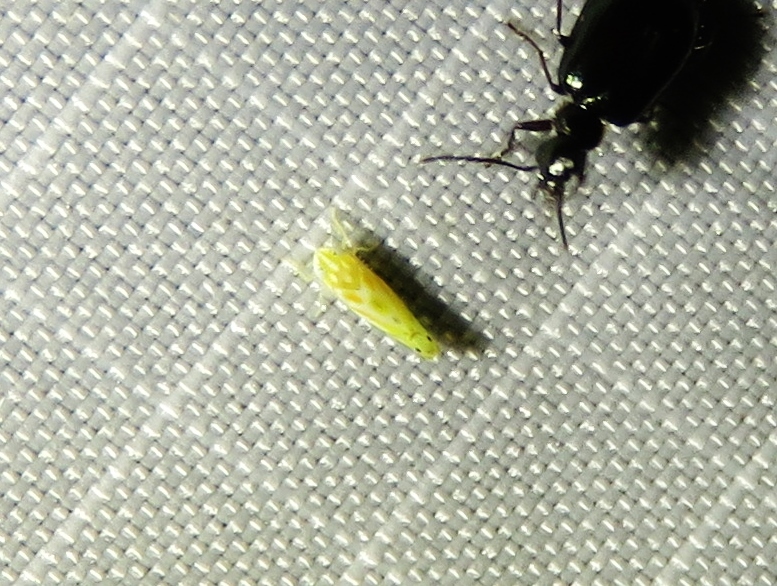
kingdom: Animalia
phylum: Arthropoda
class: Insecta
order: Hemiptera
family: Cicadellidae
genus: Alconeura
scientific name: Alconeura macra
